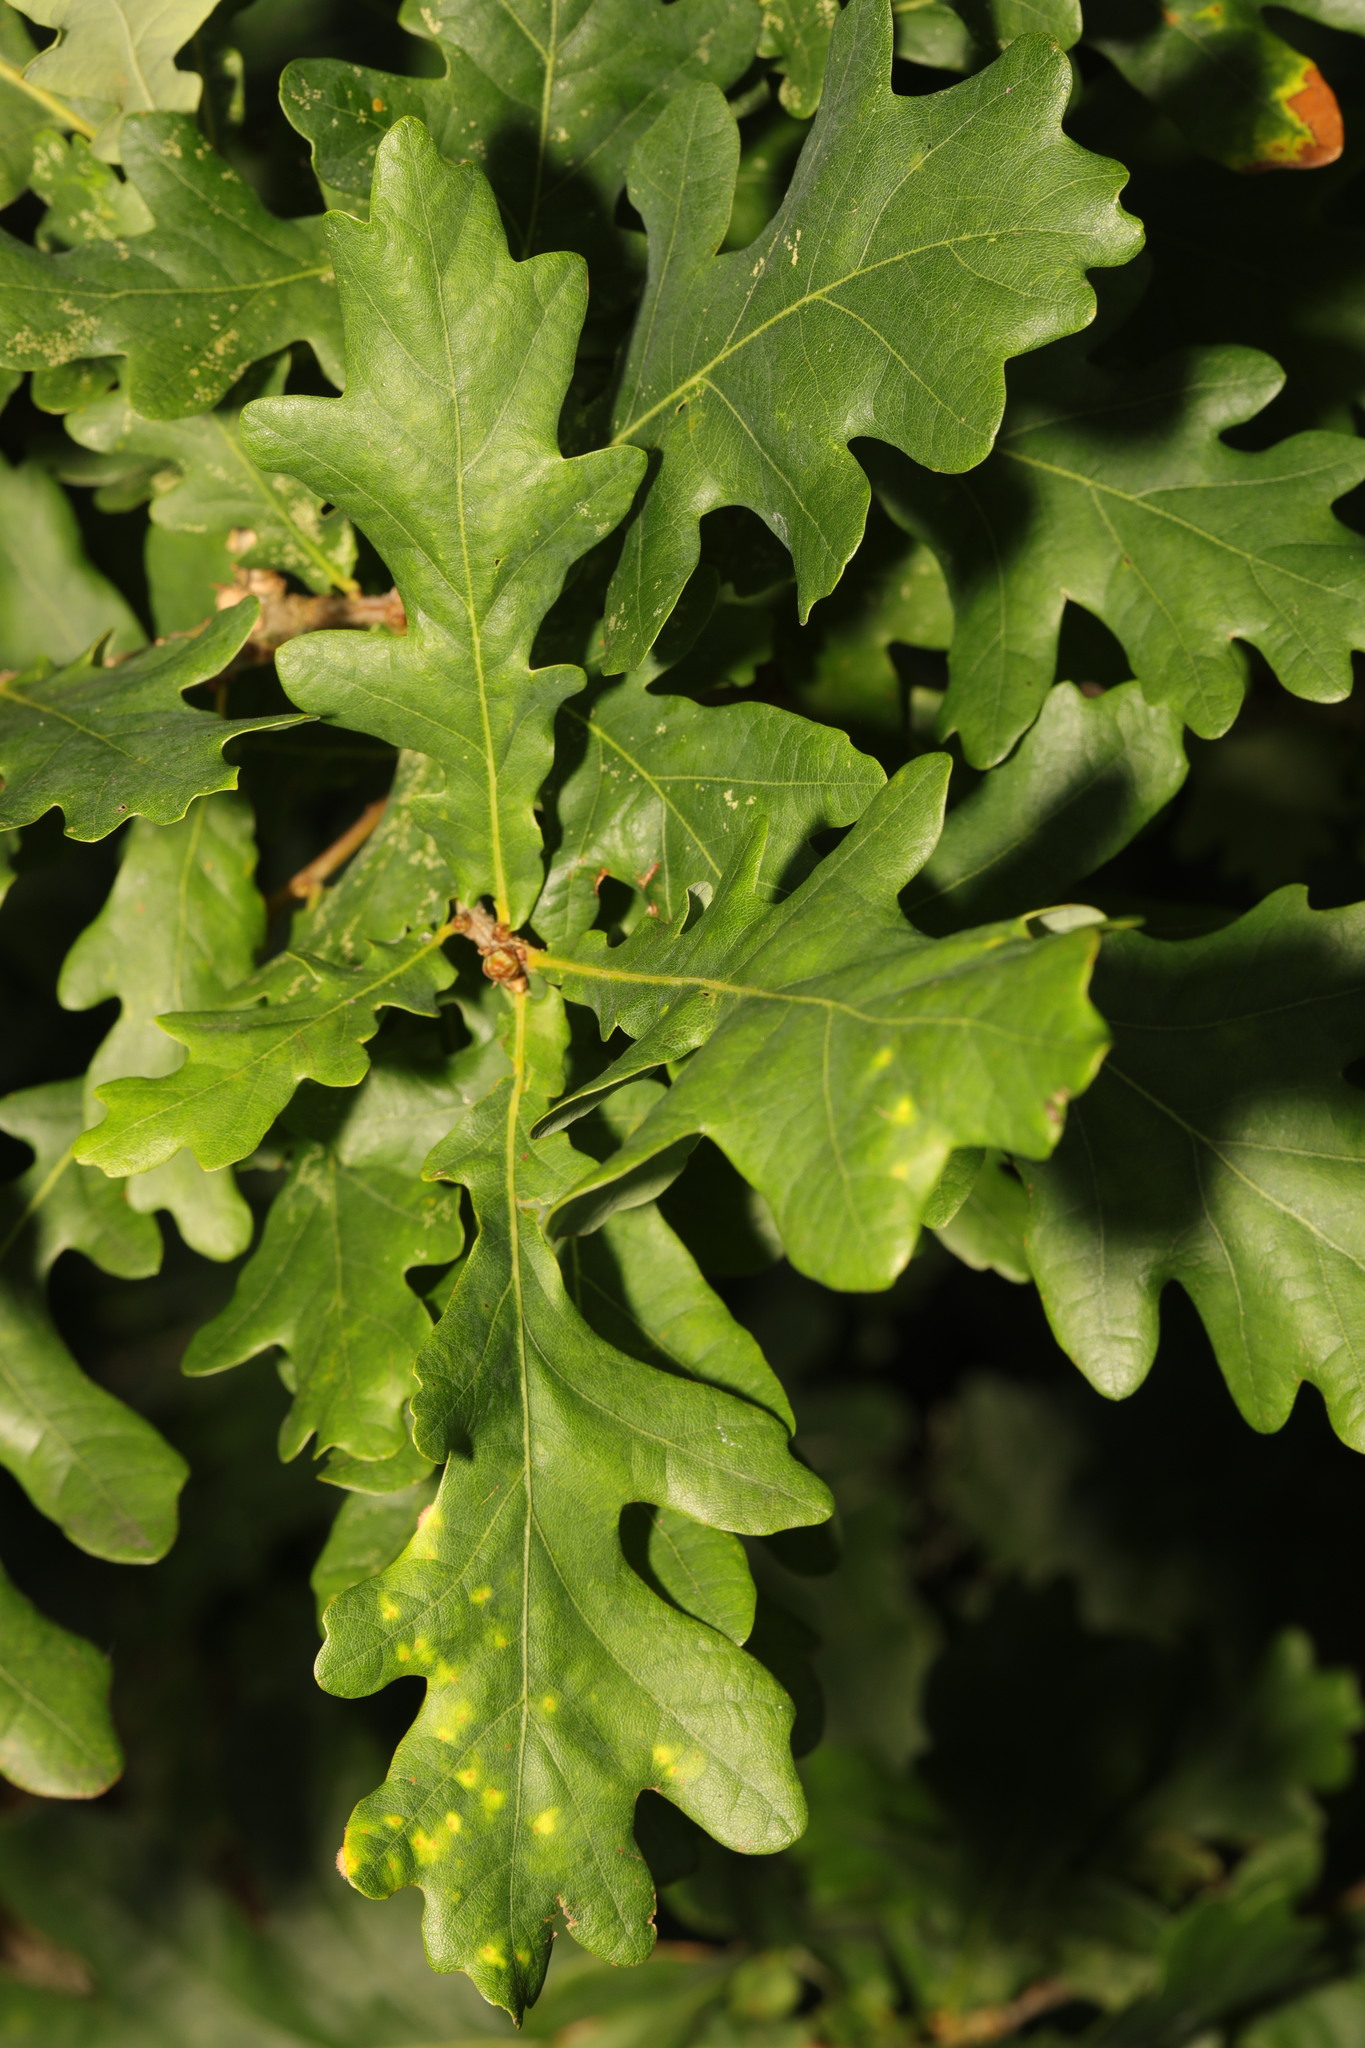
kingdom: Plantae
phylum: Tracheophyta
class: Magnoliopsida
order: Fagales
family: Fagaceae
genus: Quercus
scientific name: Quercus robur
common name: Pedunculate oak
